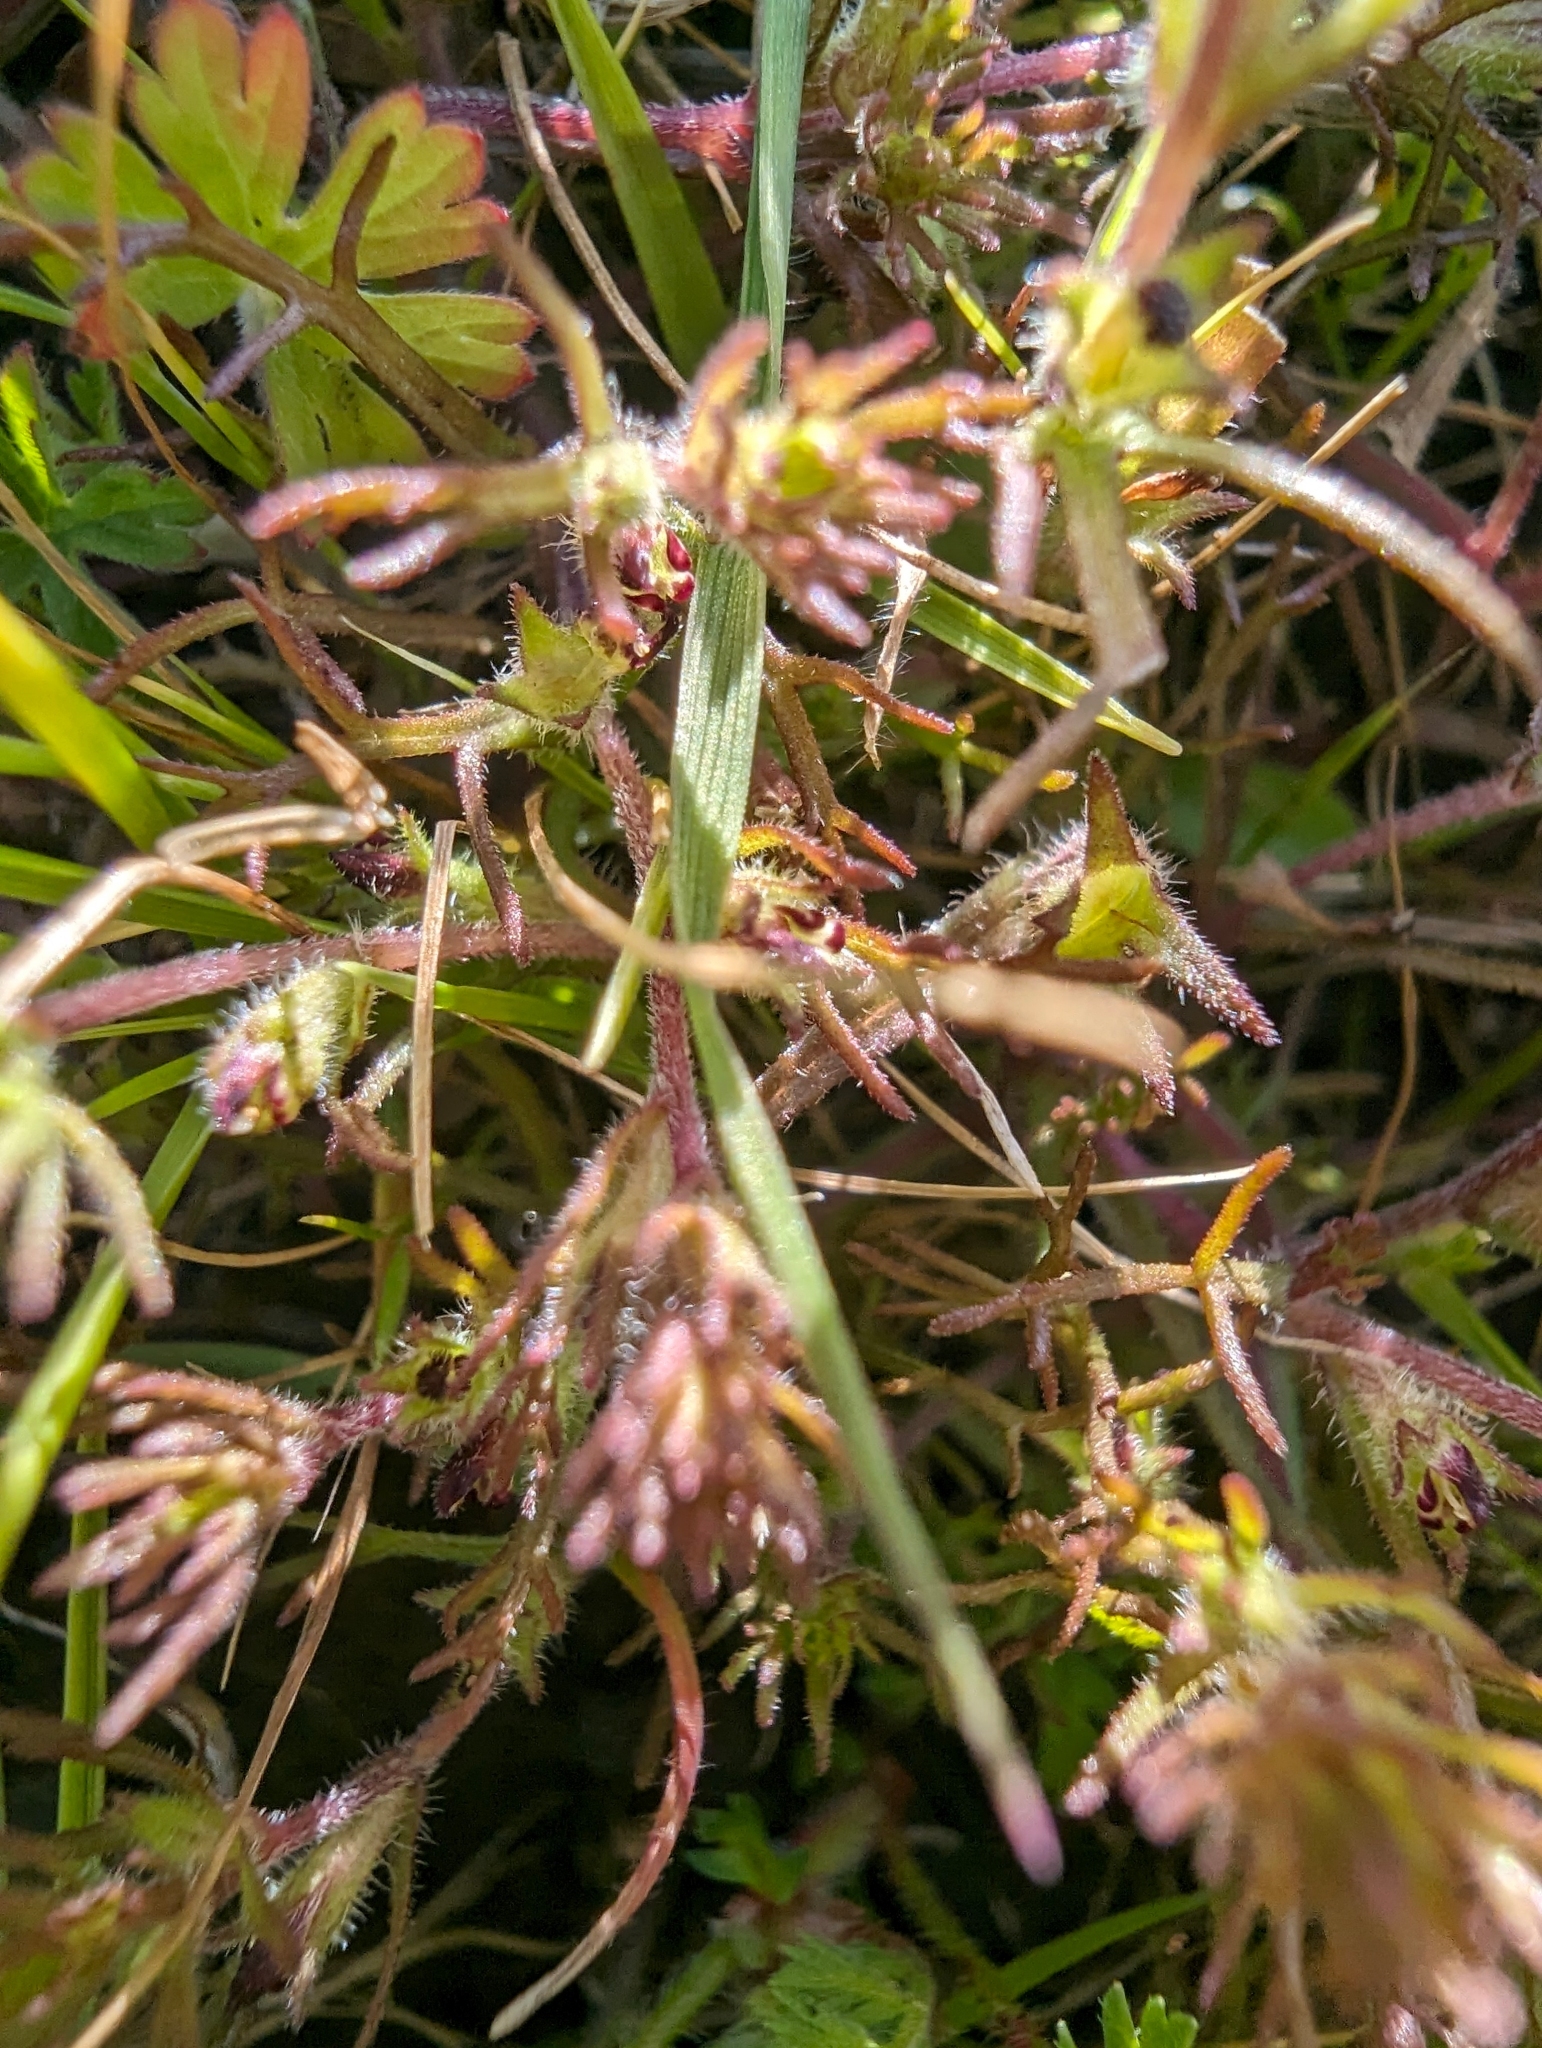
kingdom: Plantae
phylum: Tracheophyta
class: Magnoliopsida
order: Lamiales
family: Orobanchaceae
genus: Triphysaria
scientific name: Triphysaria pusilla
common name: Dwarf false owl-clover
